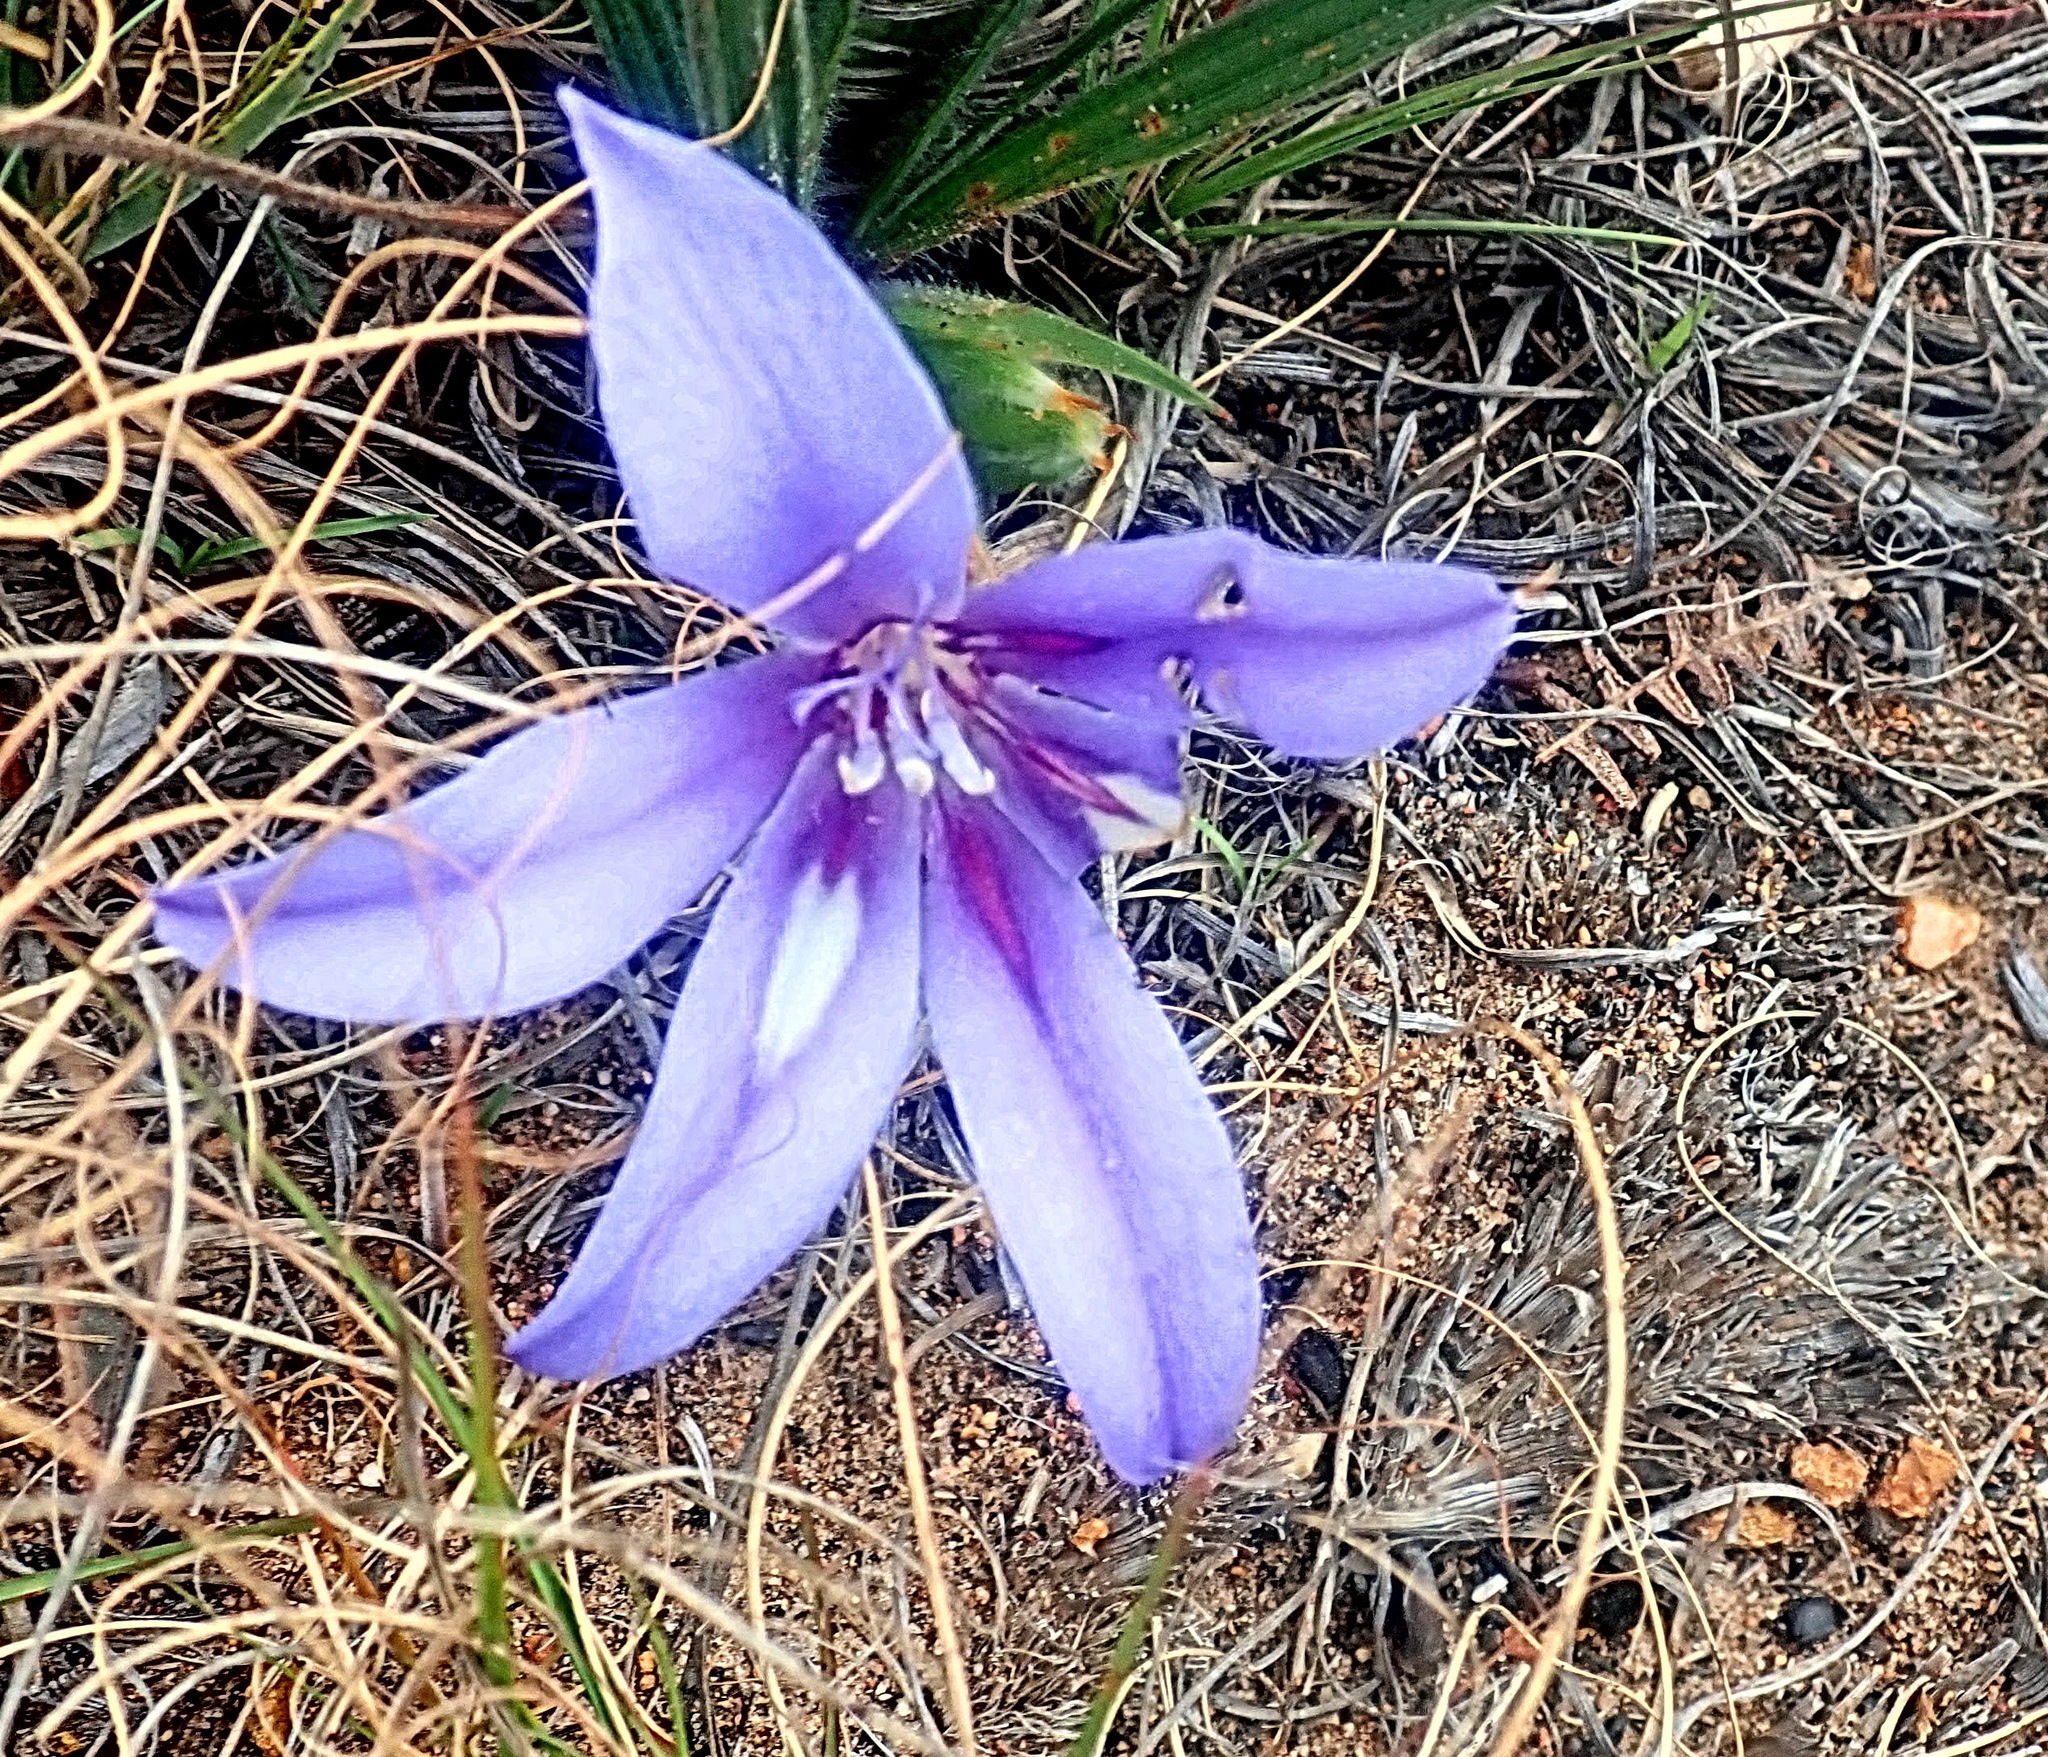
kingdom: Plantae
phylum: Tracheophyta
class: Liliopsida
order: Asparagales
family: Iridaceae
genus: Babiana
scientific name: Babiana sambucina
